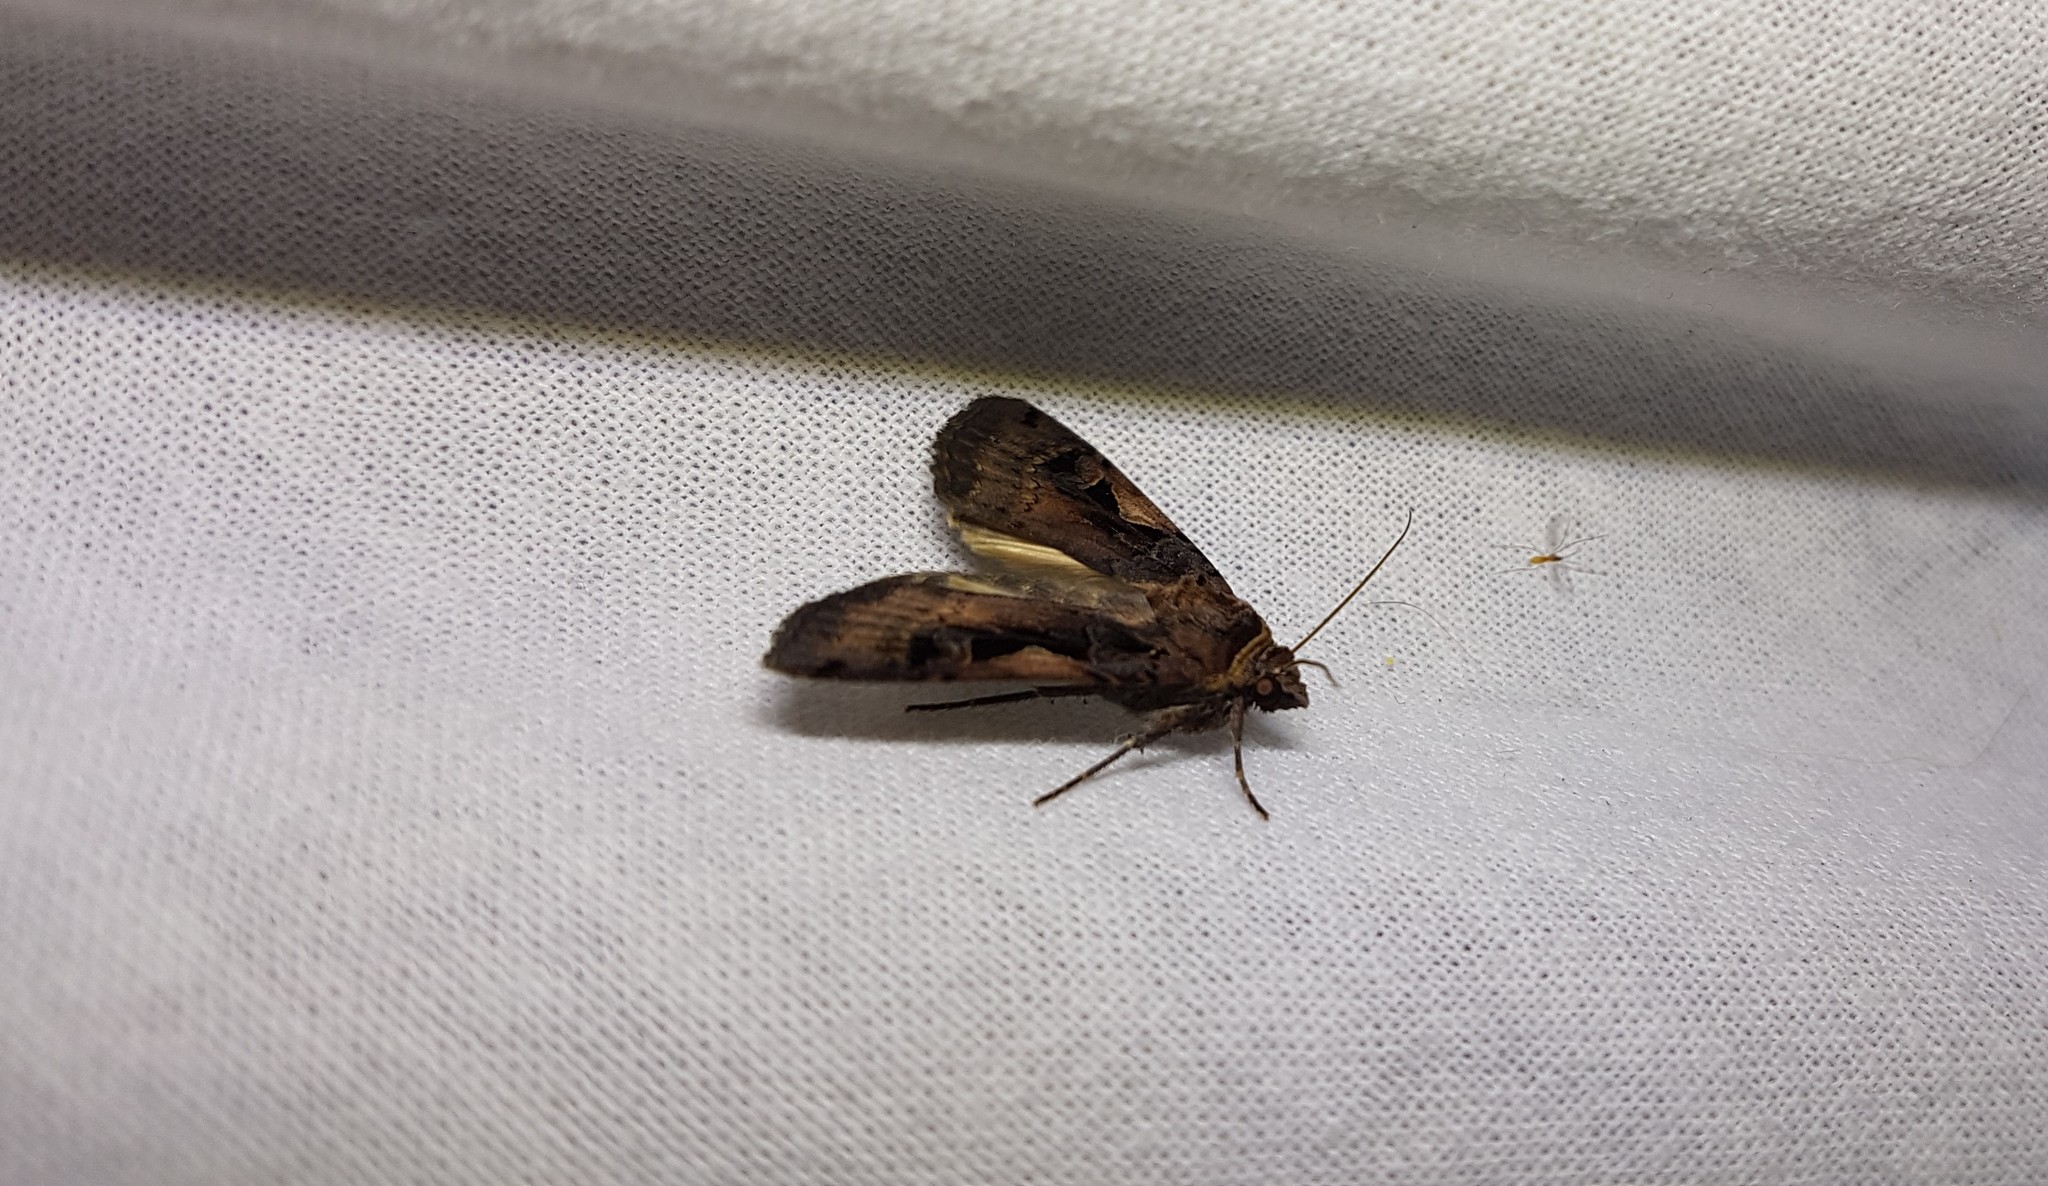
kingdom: Animalia
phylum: Arthropoda
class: Insecta
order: Lepidoptera
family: Noctuidae
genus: Xestia
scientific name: Xestia c-nigrum
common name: Setaceous hebrew character
